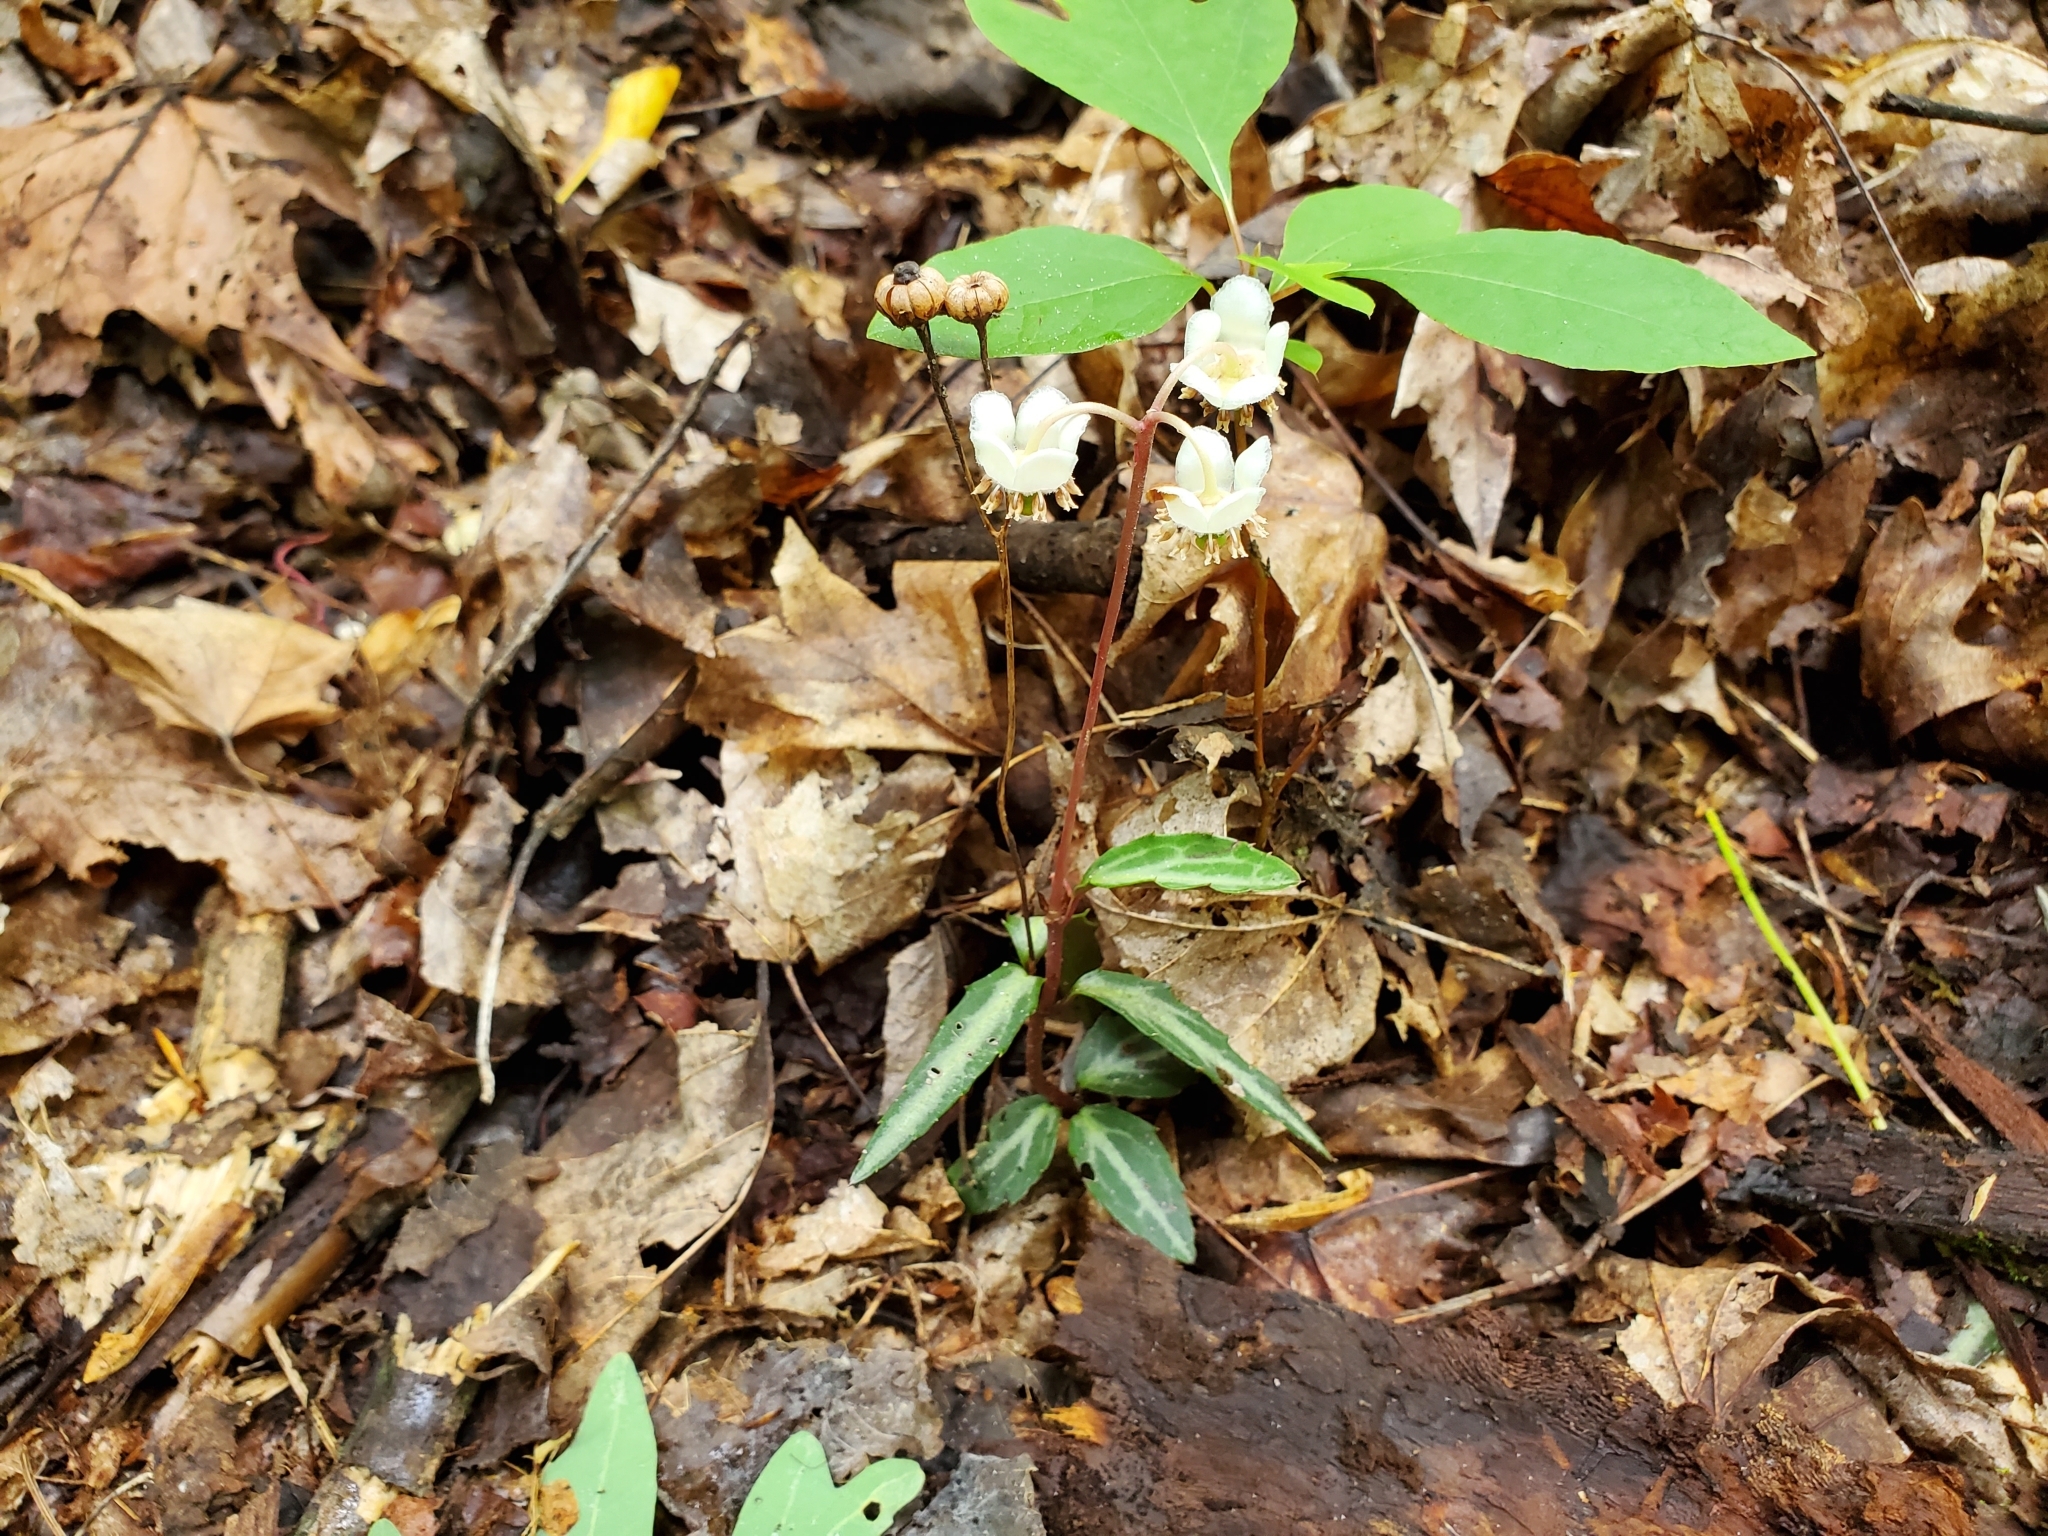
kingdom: Plantae
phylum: Tracheophyta
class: Magnoliopsida
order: Ericales
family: Ericaceae
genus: Chimaphila
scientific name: Chimaphila maculata
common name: Spotted pipsissewa
